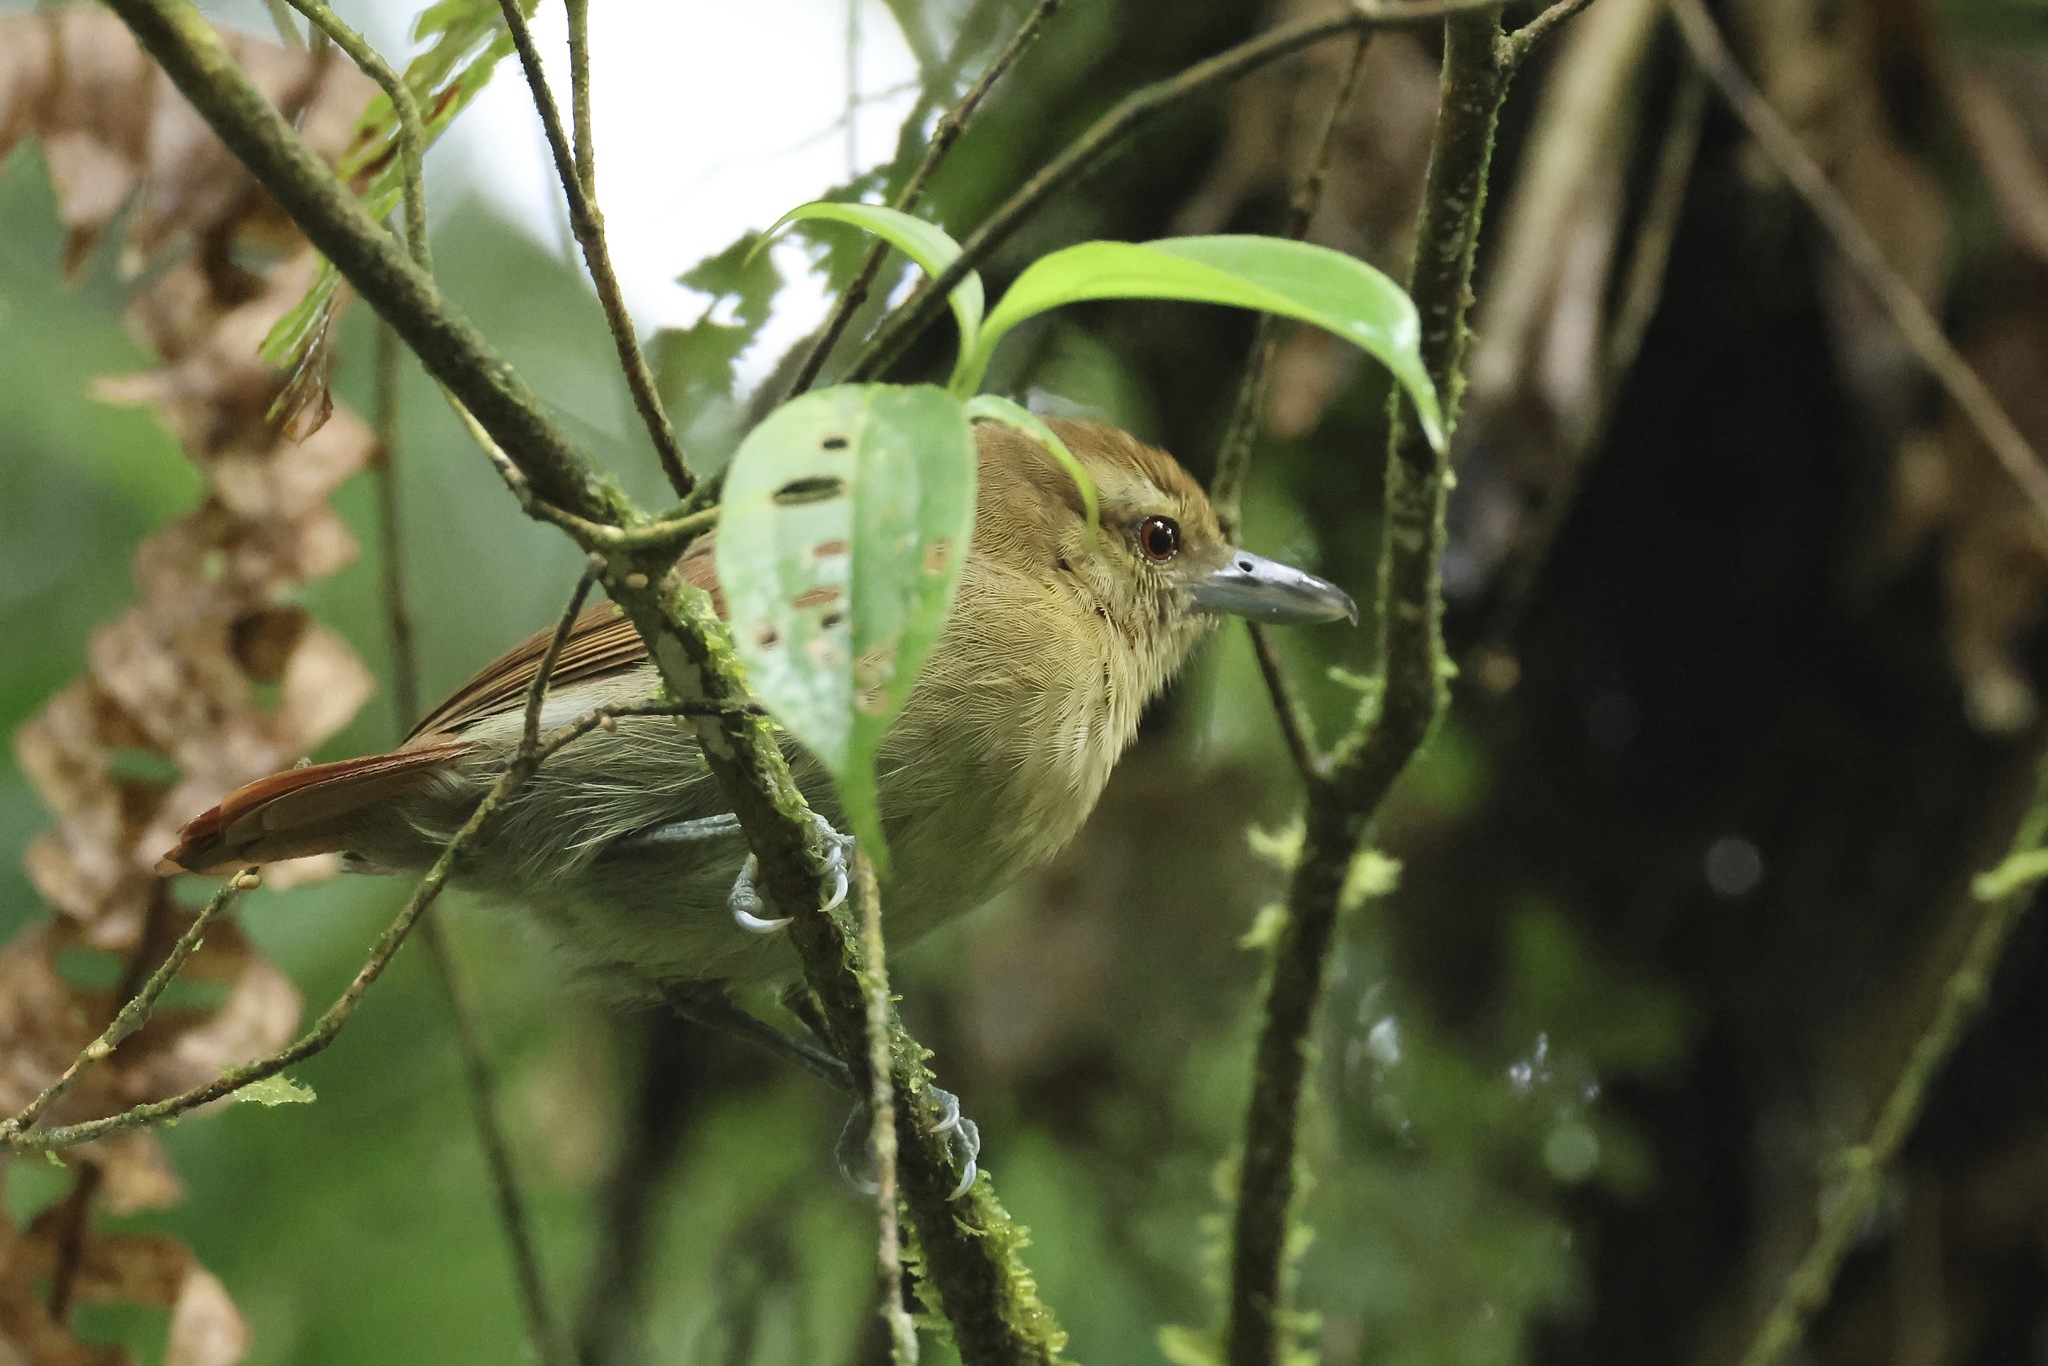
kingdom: Animalia
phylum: Chordata
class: Aves
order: Passeriformes
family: Thamnophilidae
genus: Thamnistes
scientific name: Thamnistes anabatinus
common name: Russet antshrike
